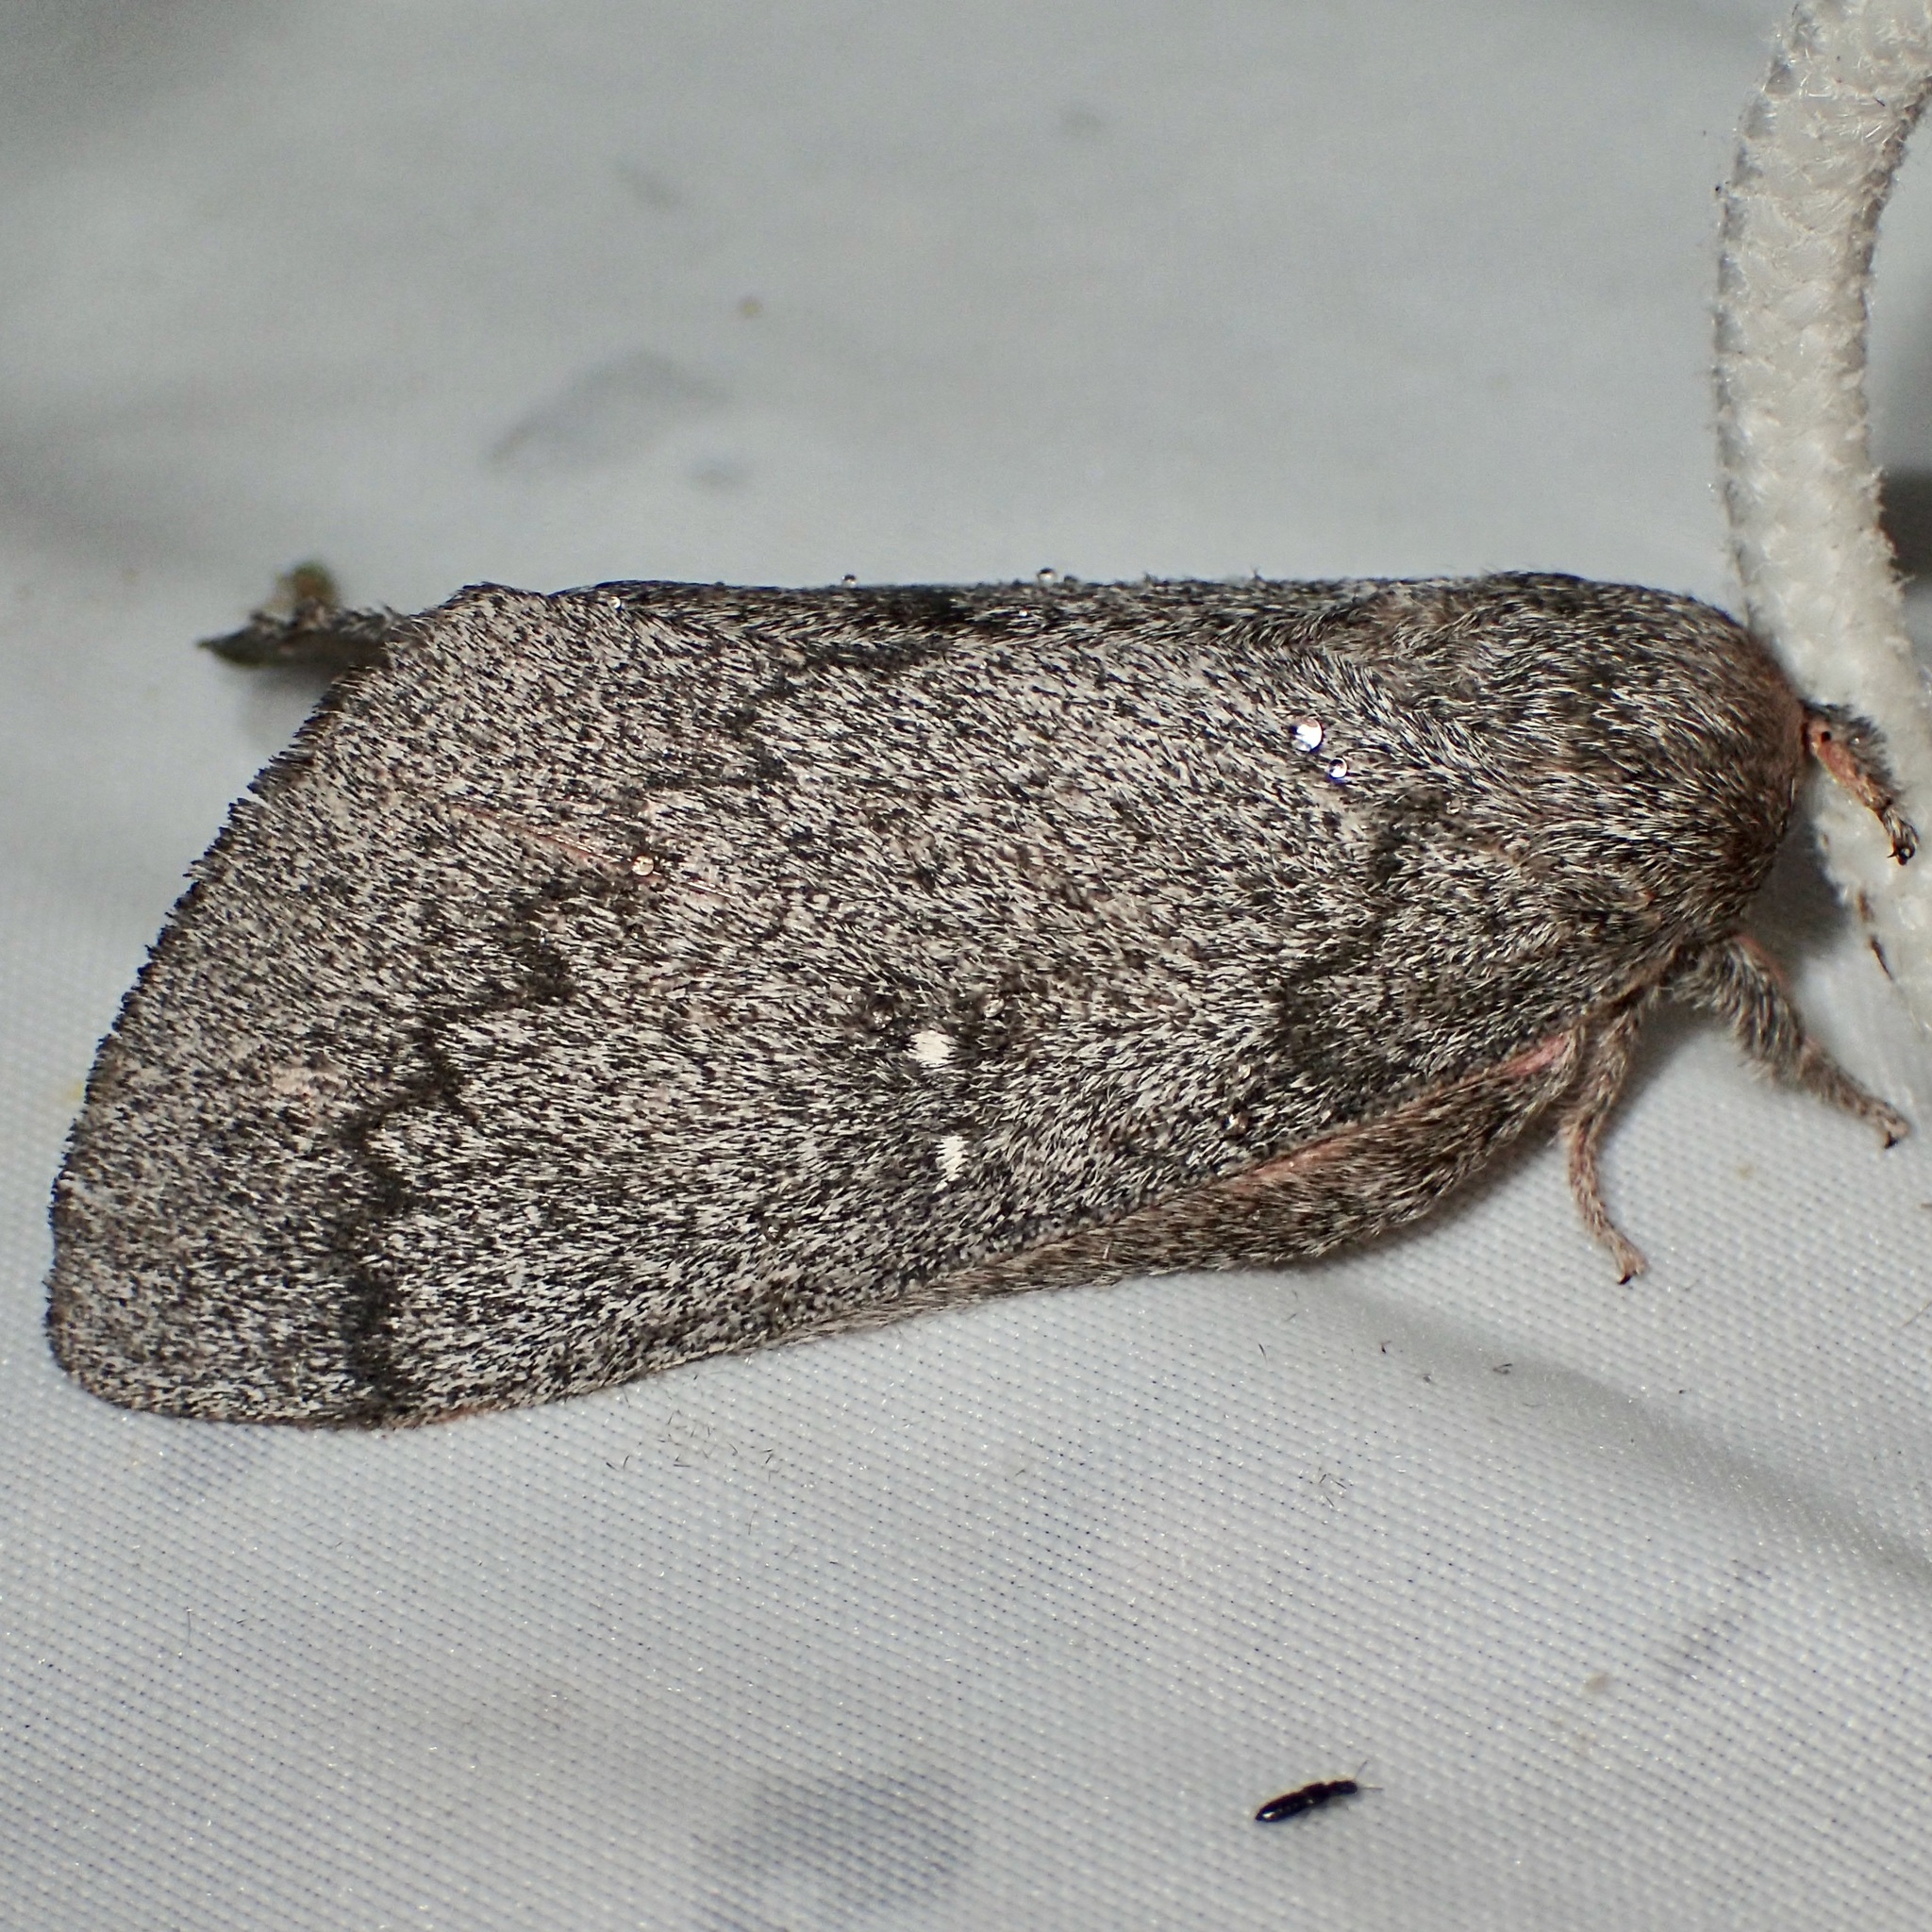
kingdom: Animalia
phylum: Arthropoda
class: Insecta
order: Lepidoptera
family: Saturniidae
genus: Syssphinx
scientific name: Syssphinx hubbardi
